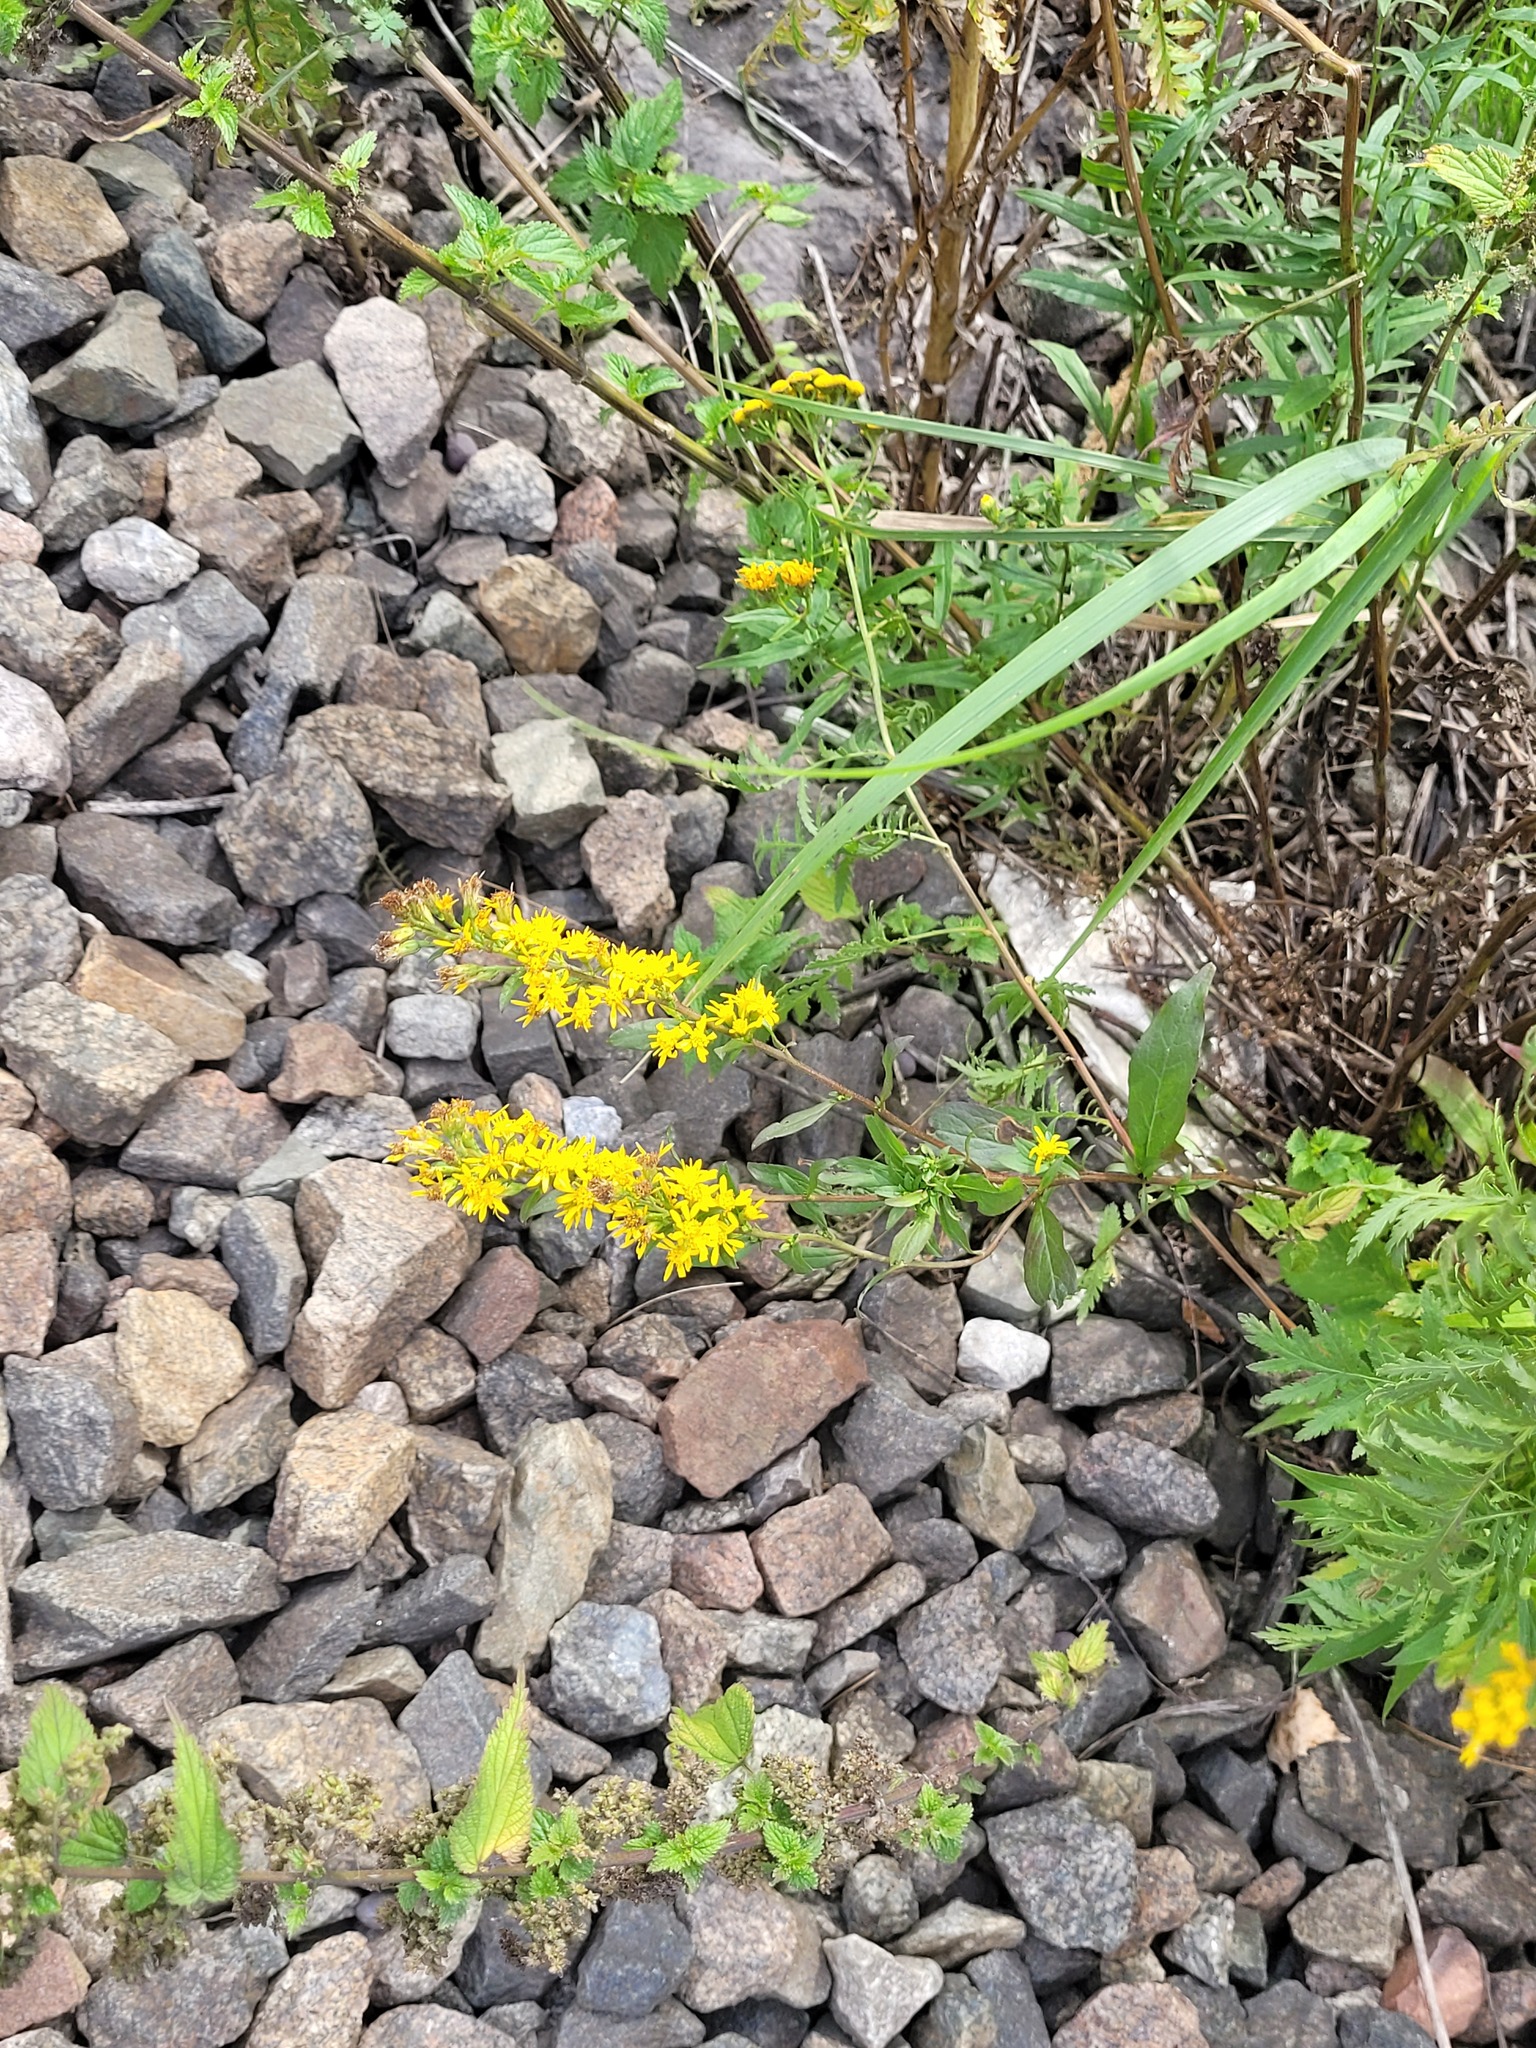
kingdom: Plantae
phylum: Tracheophyta
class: Magnoliopsida
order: Asterales
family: Asteraceae
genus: Solidago
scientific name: Solidago virgaurea
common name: Goldenrod
